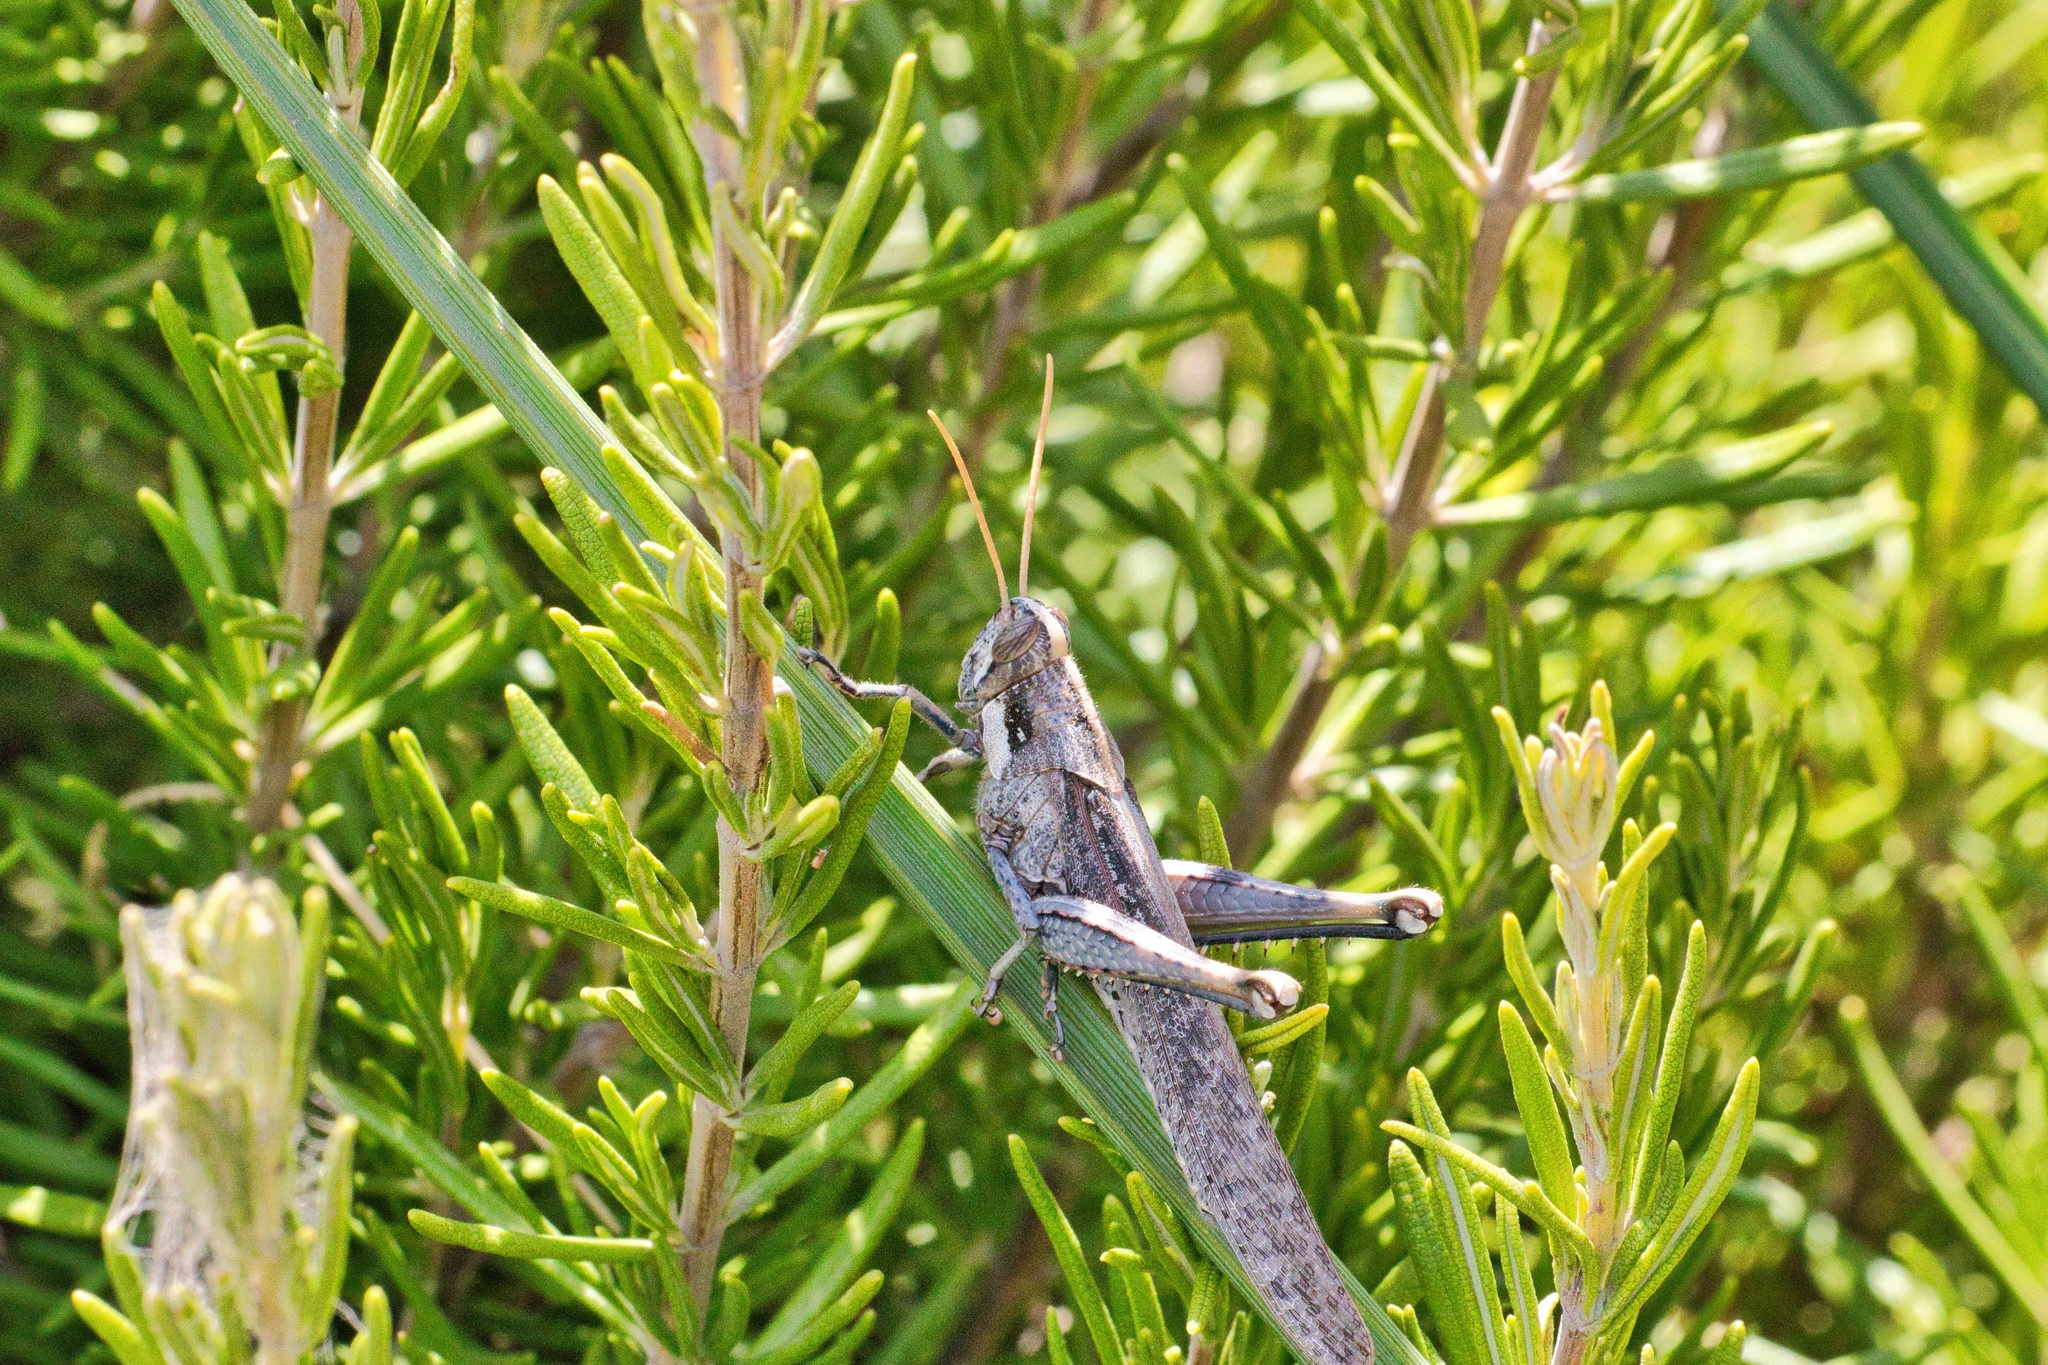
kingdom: Animalia
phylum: Arthropoda
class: Insecta
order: Orthoptera
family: Acrididae
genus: Schistocerca
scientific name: Schistocerca nitens
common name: Vagrant grasshopper
